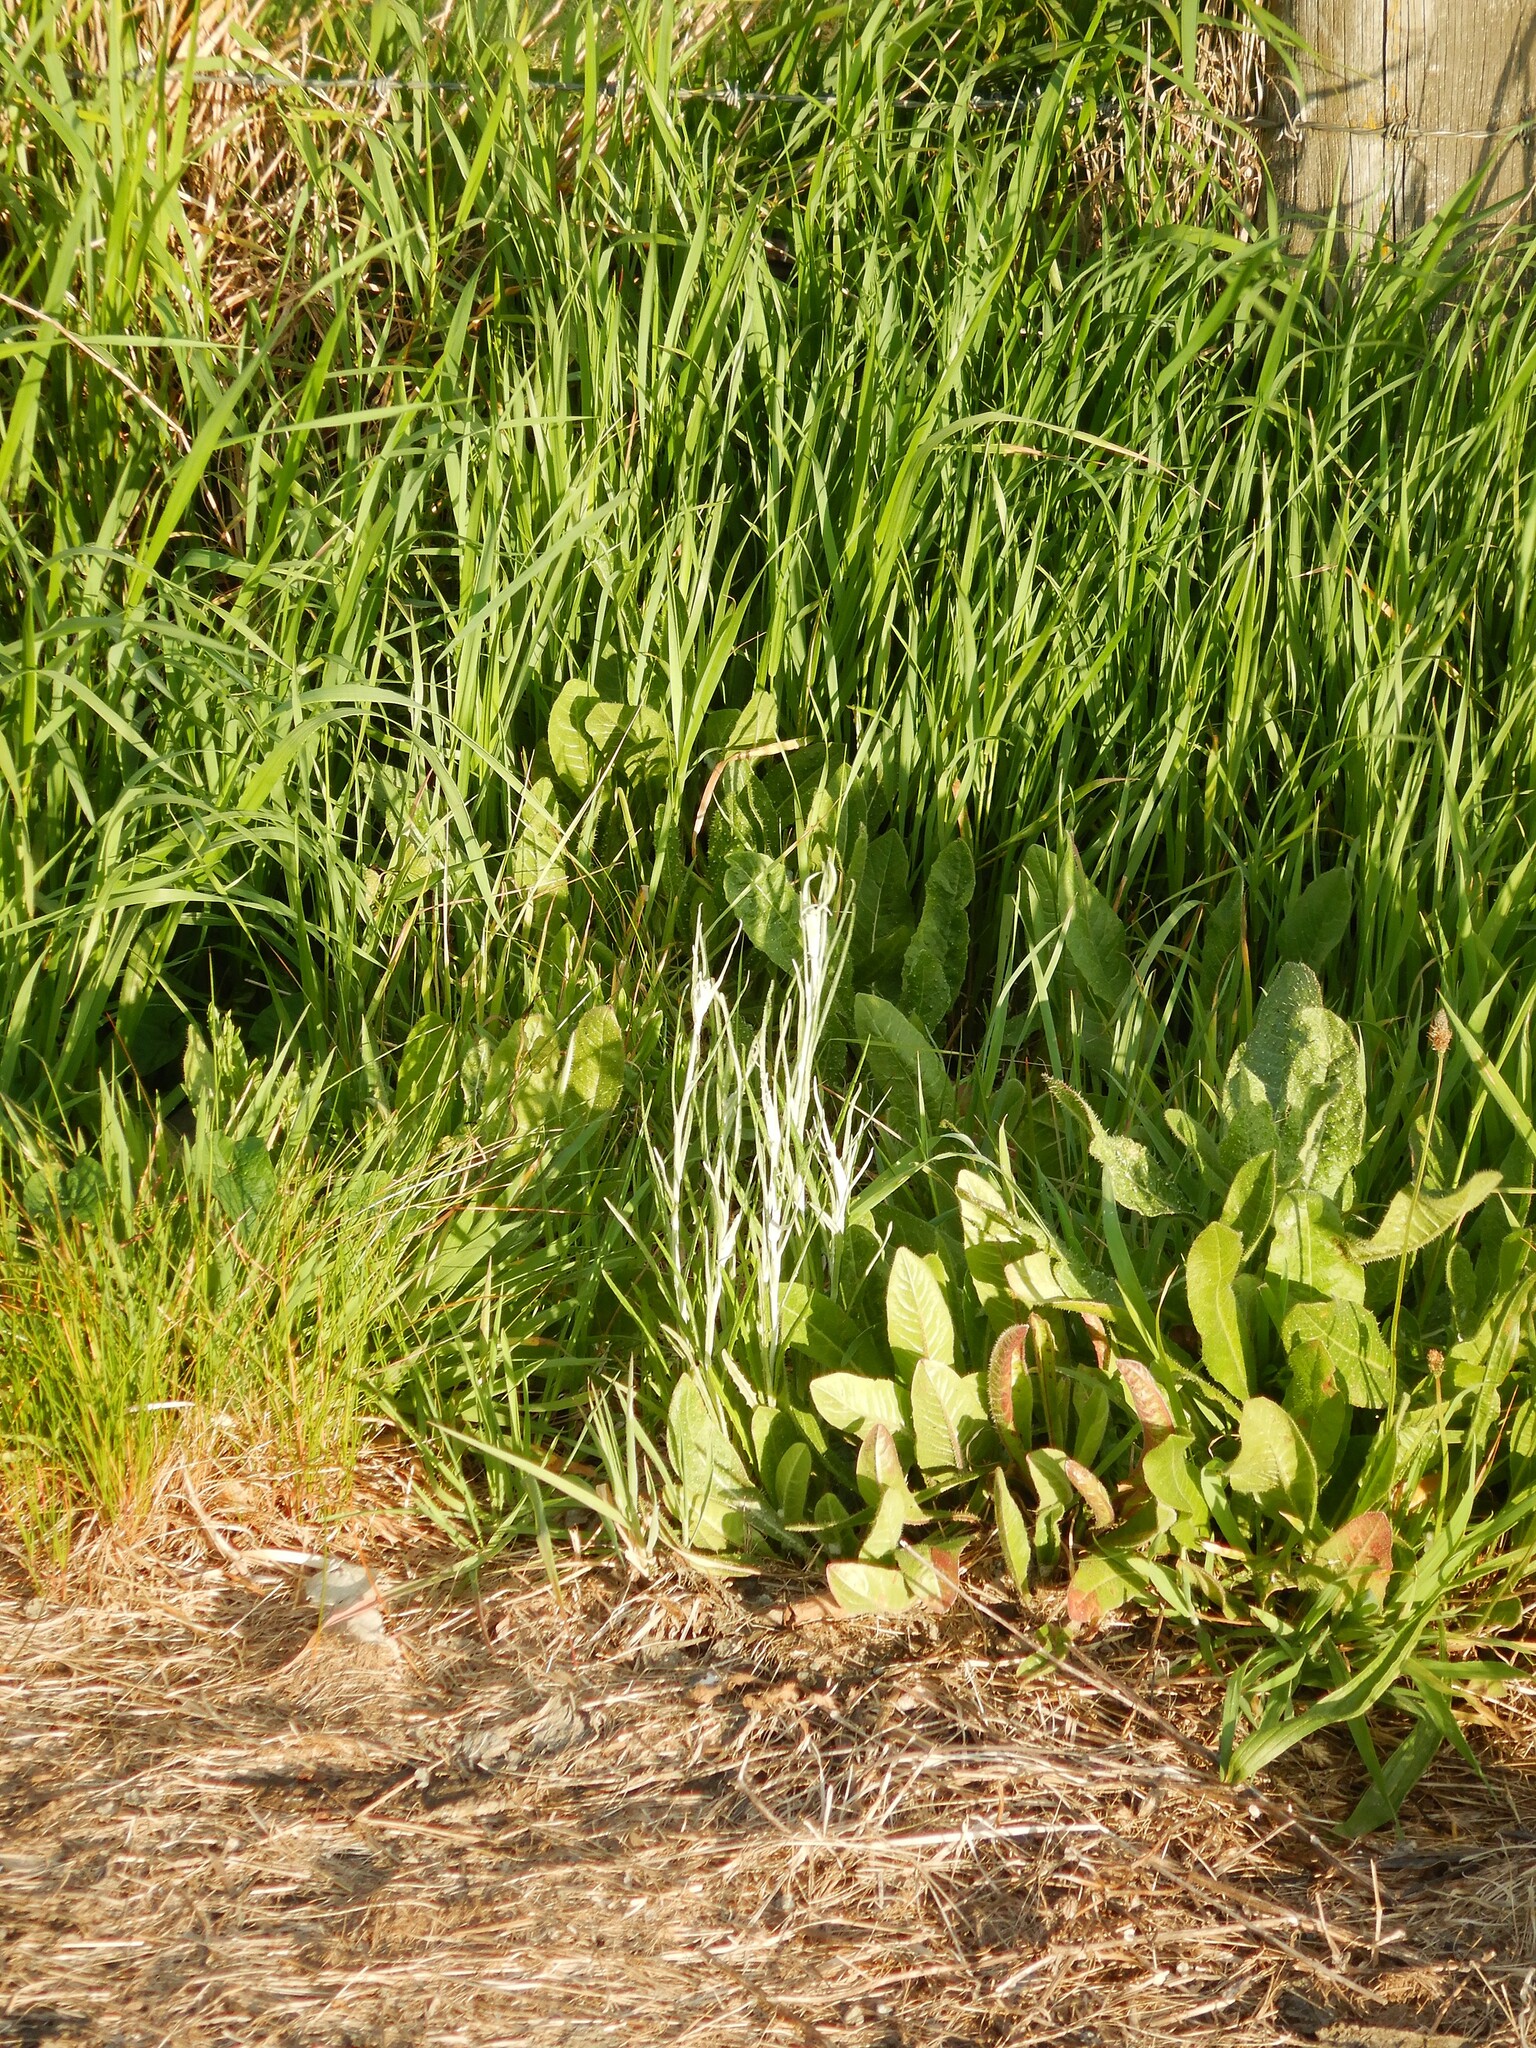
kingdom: Plantae
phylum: Tracheophyta
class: Magnoliopsida
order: Asterales
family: Asteraceae
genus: Senecio
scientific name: Senecio quadridentatus
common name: Cotton fireweed
